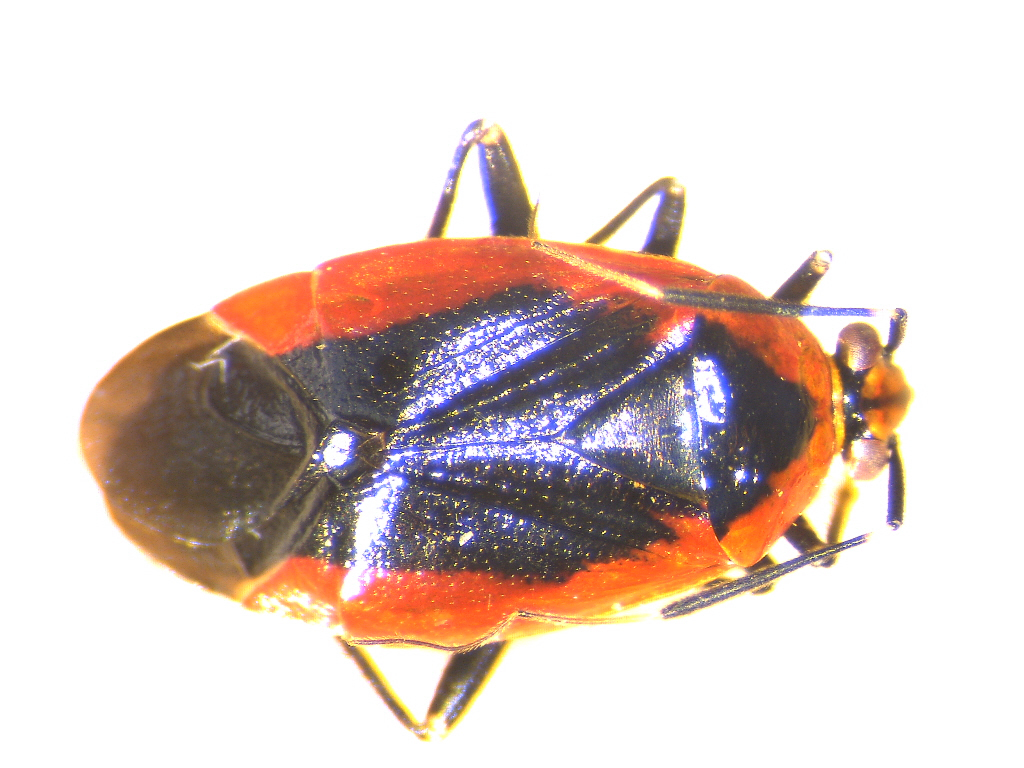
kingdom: Animalia
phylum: Arthropoda
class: Insecta
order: Hemiptera
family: Miridae
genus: Metriorrhynchomiris
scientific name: Metriorrhynchomiris dislocatus
